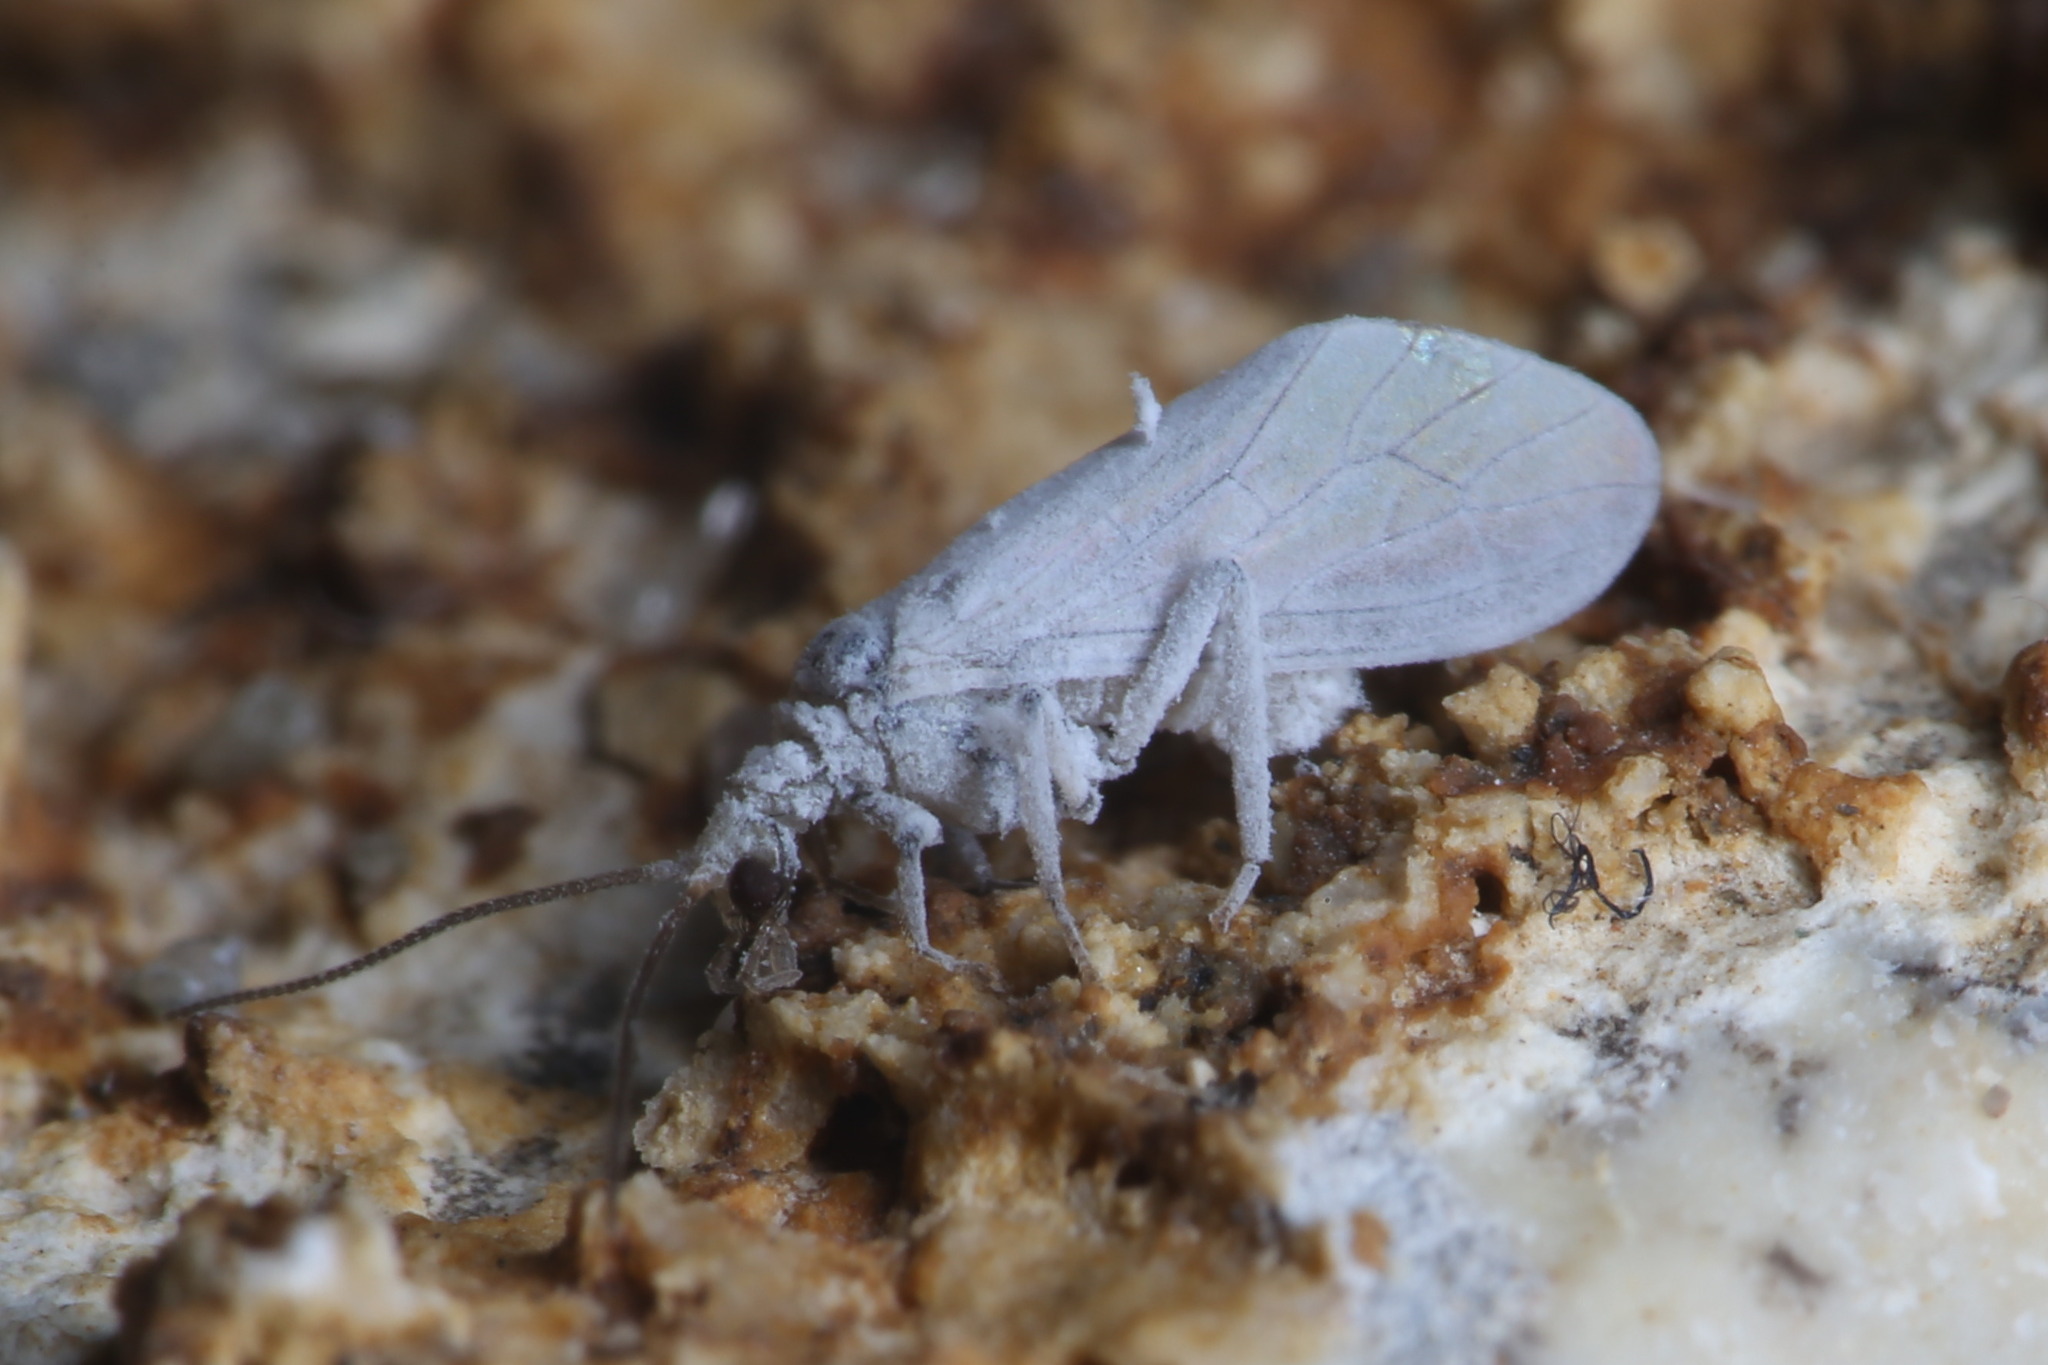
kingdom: Animalia
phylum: Arthropoda
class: Insecta
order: Neuroptera
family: Coniopterygidae
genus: Conwentzia
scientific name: Conwentzia psociformis
